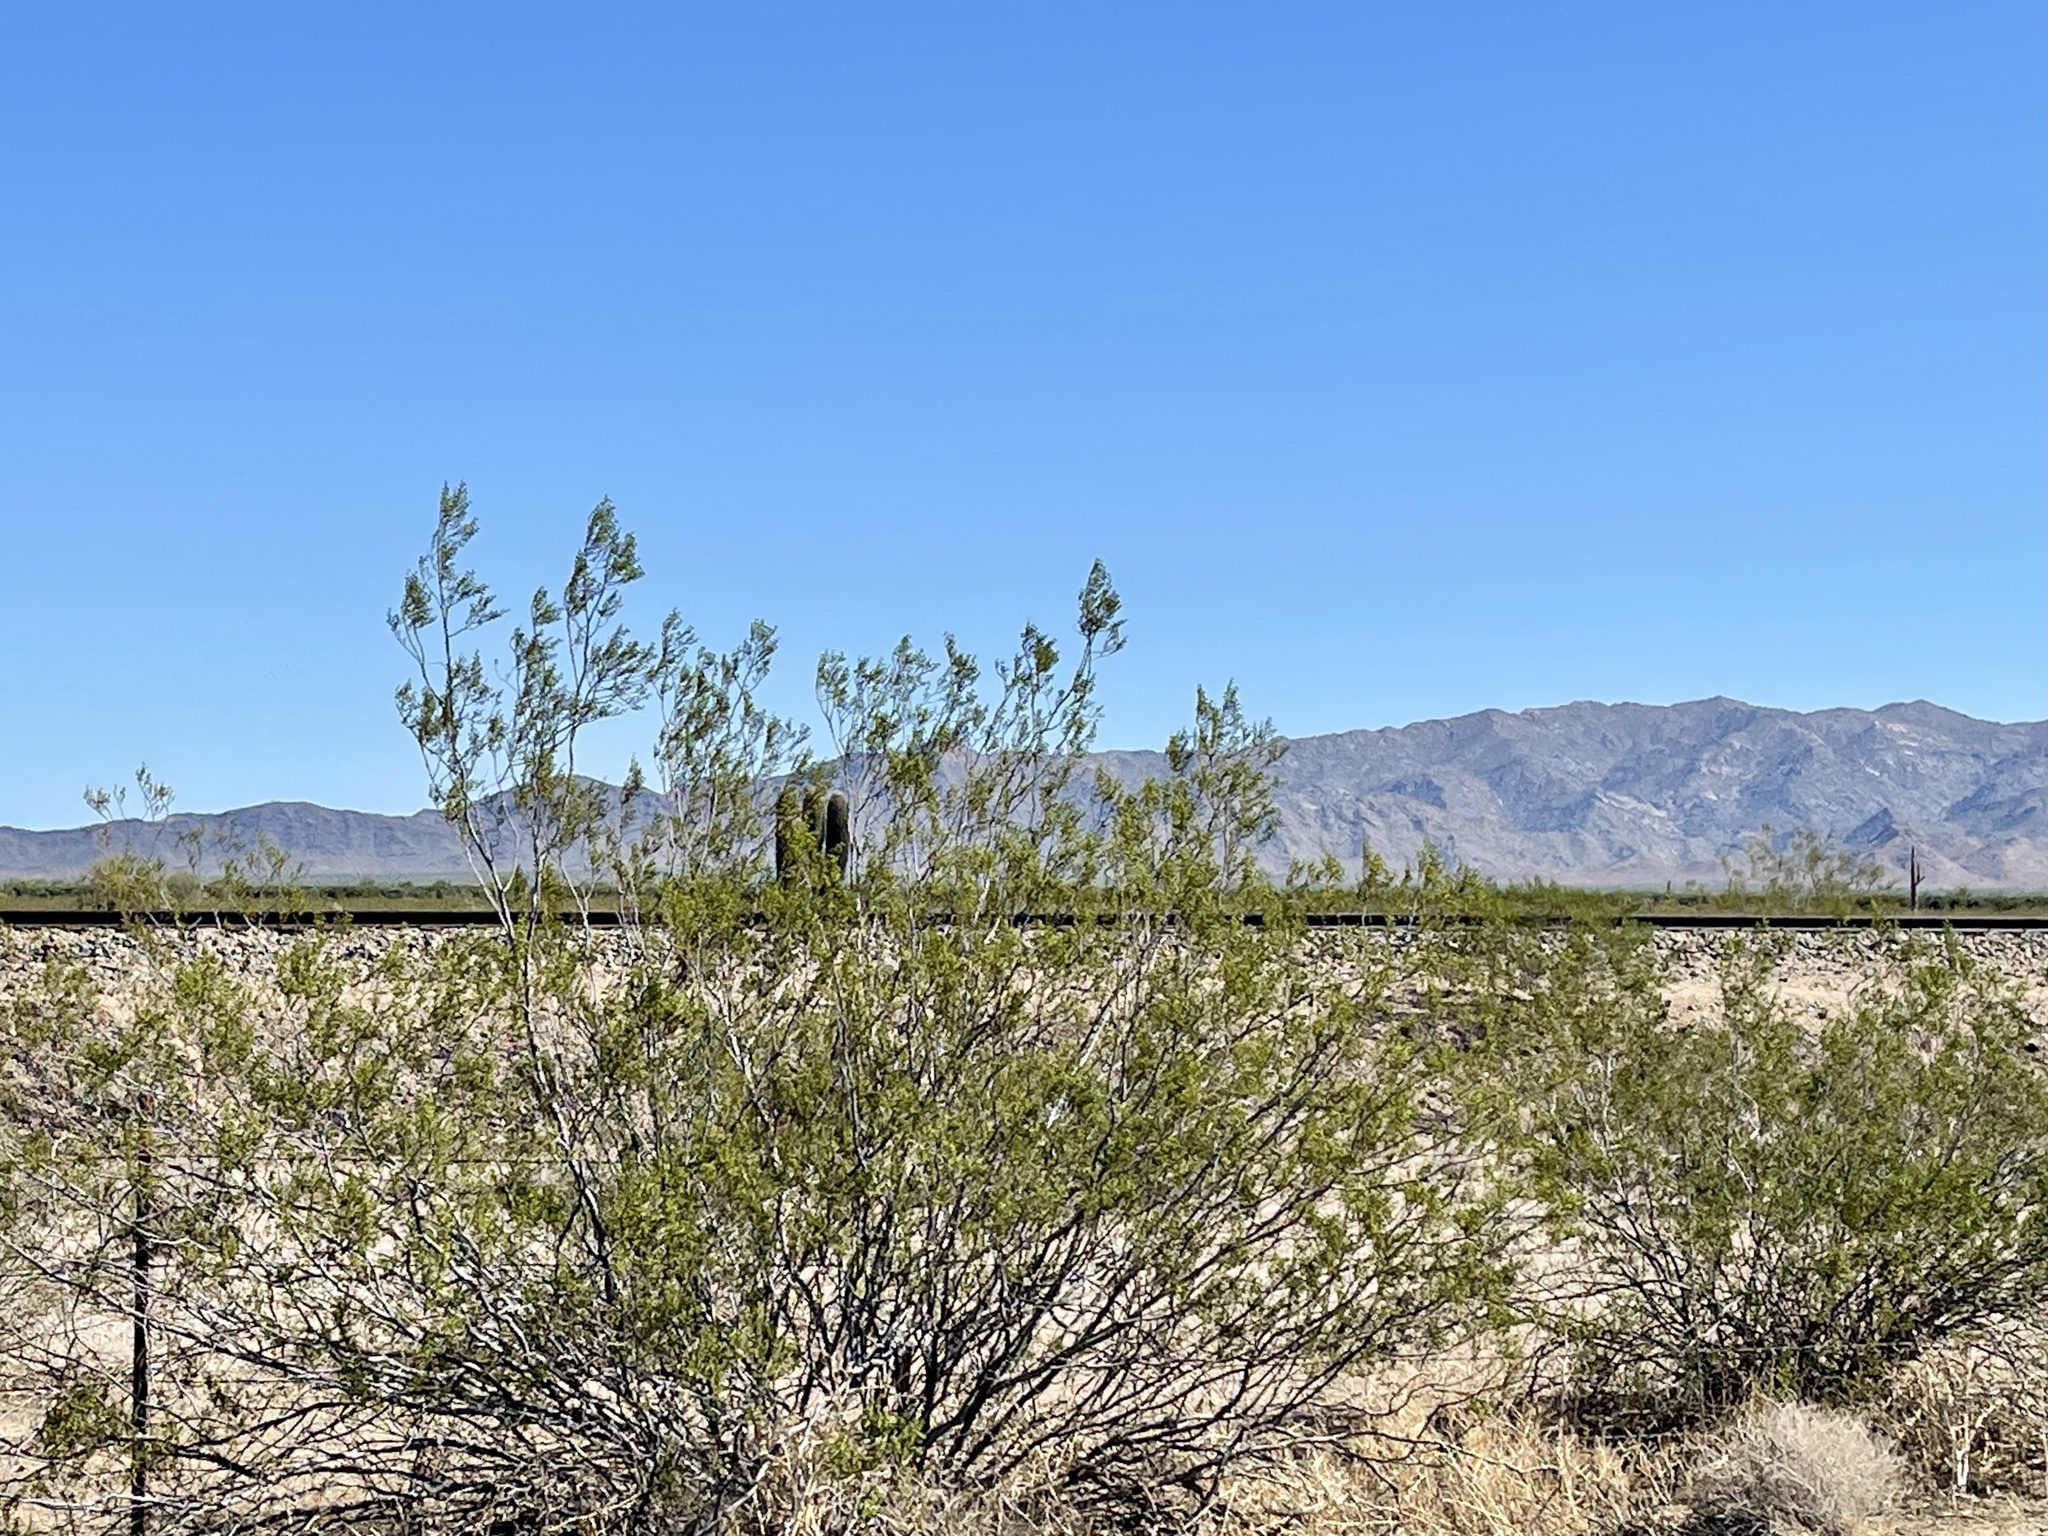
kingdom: Plantae
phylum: Tracheophyta
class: Magnoliopsida
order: Zygophyllales
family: Zygophyllaceae
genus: Larrea
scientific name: Larrea tridentata
